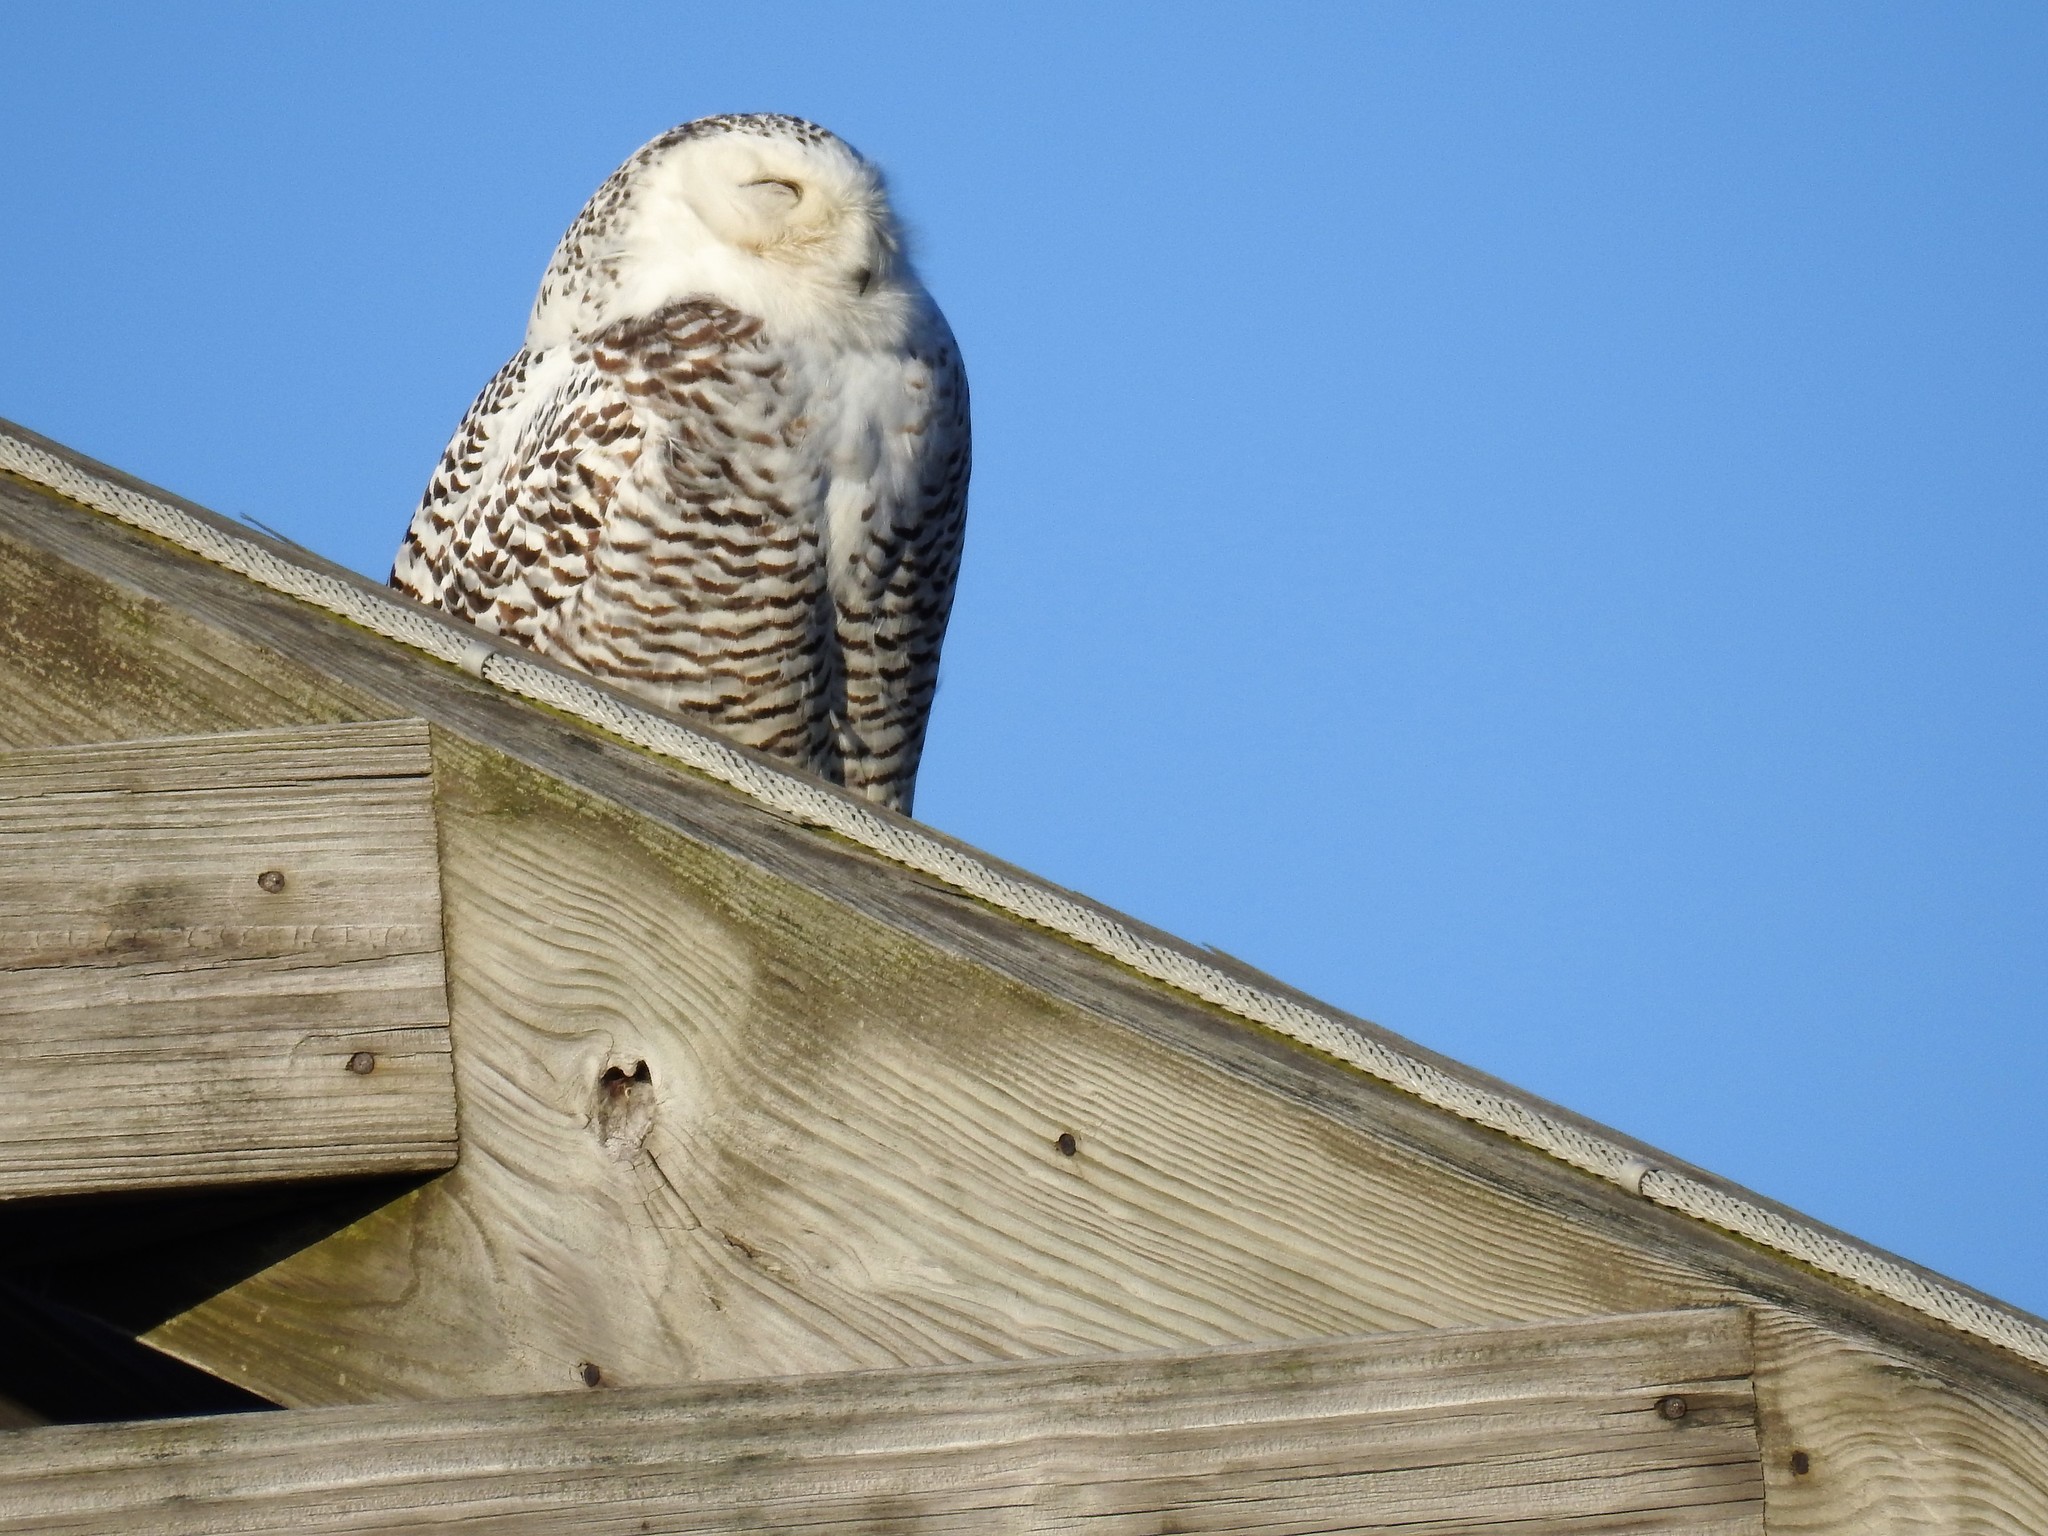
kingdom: Animalia
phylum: Chordata
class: Aves
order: Strigiformes
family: Strigidae
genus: Bubo
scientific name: Bubo scandiacus
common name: Snowy owl
